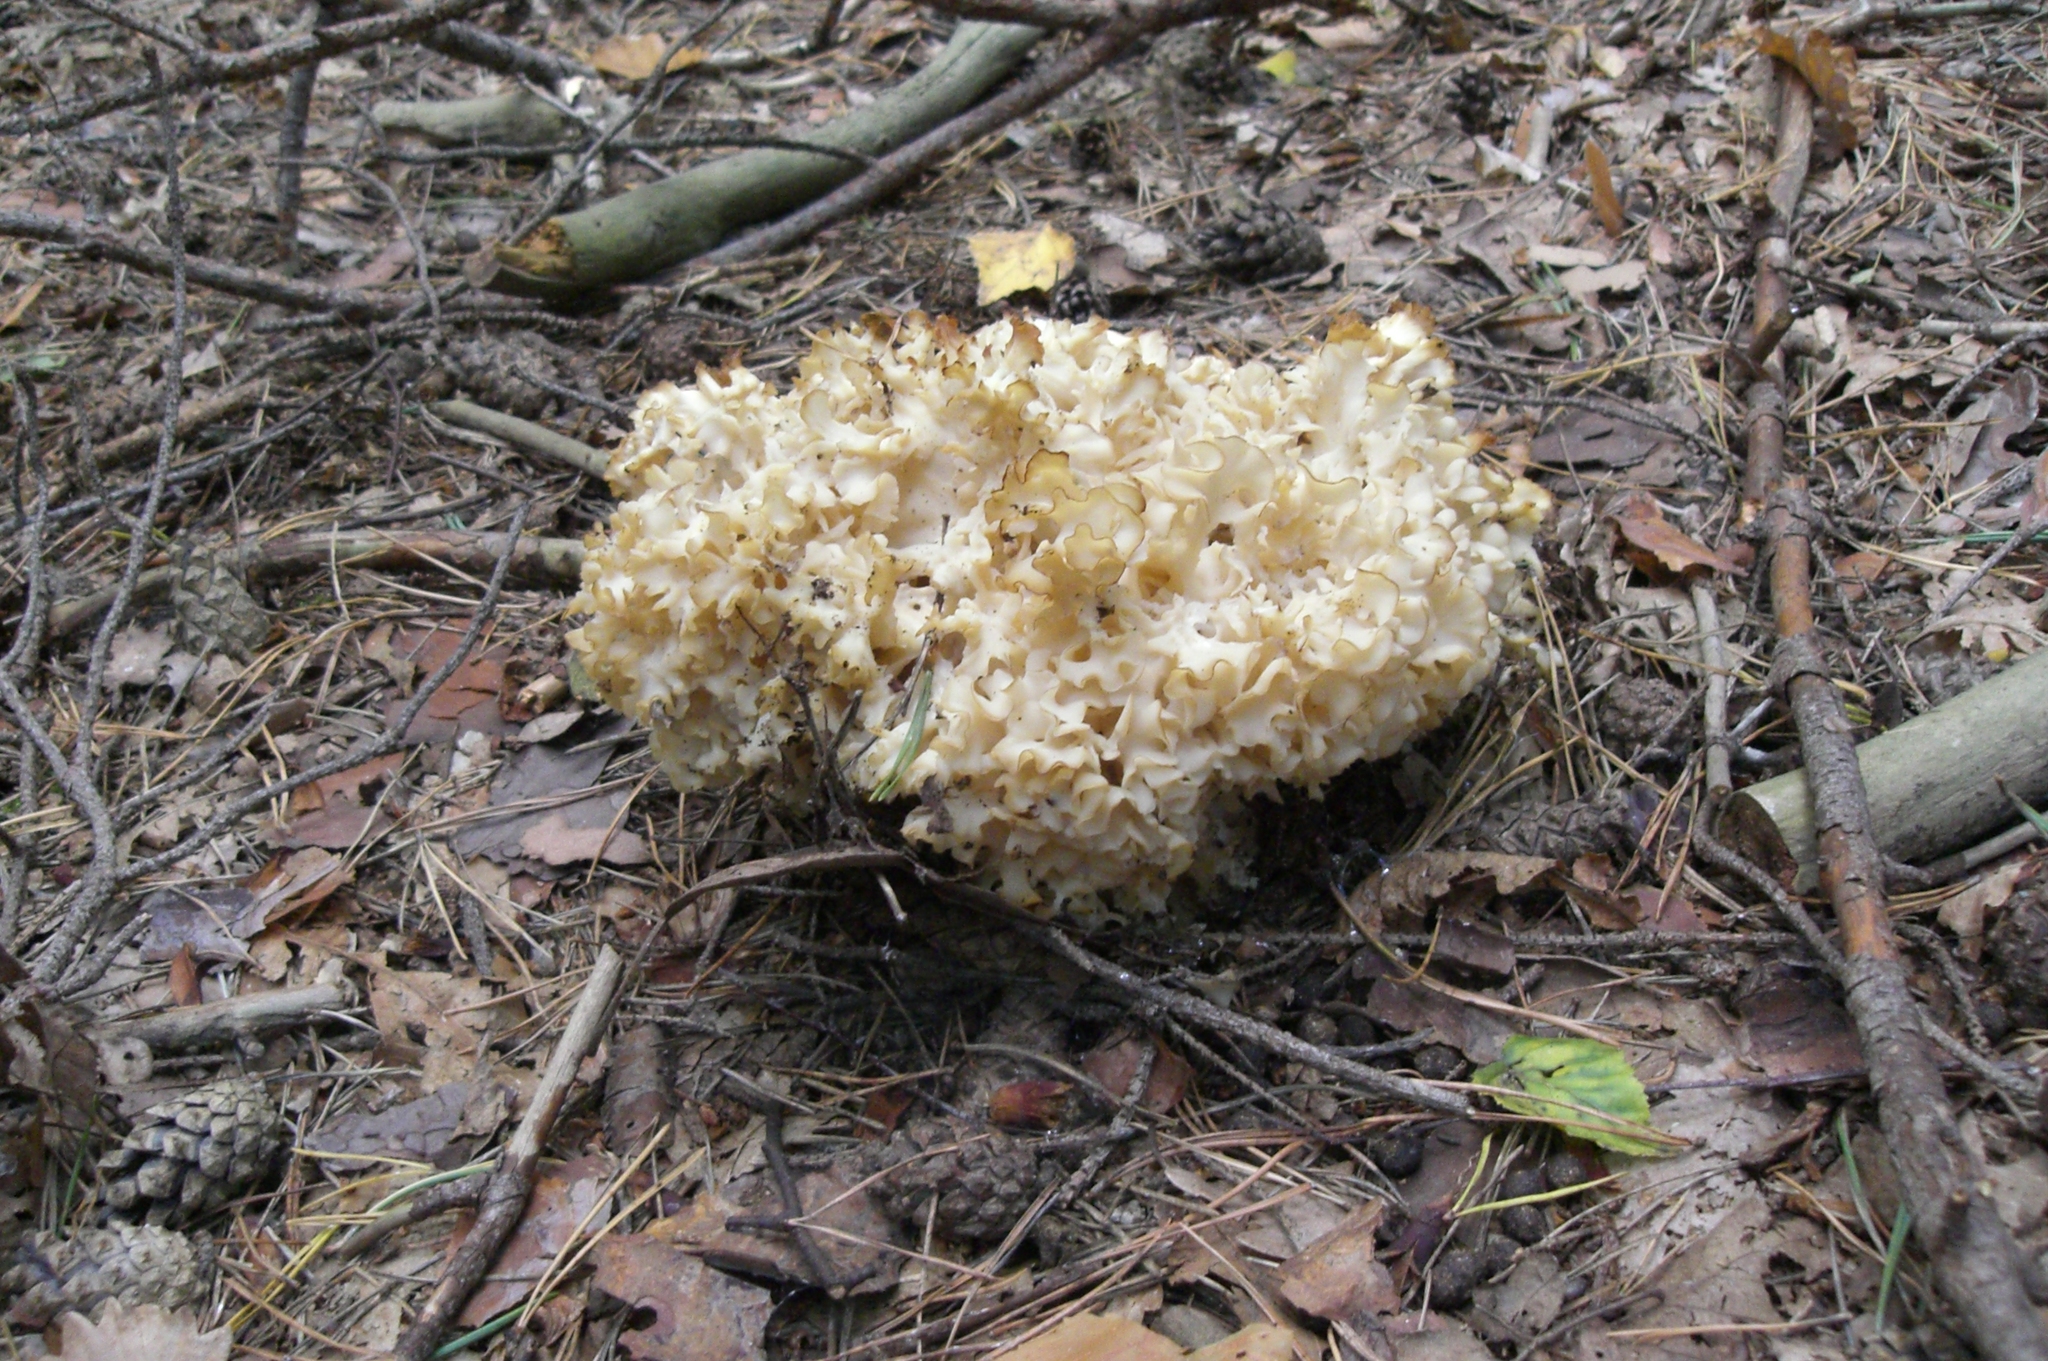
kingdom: Fungi
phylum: Basidiomycota
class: Agaricomycetes
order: Polyporales
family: Sparassidaceae
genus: Sparassis
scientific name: Sparassis crispa
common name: Brain fungus
